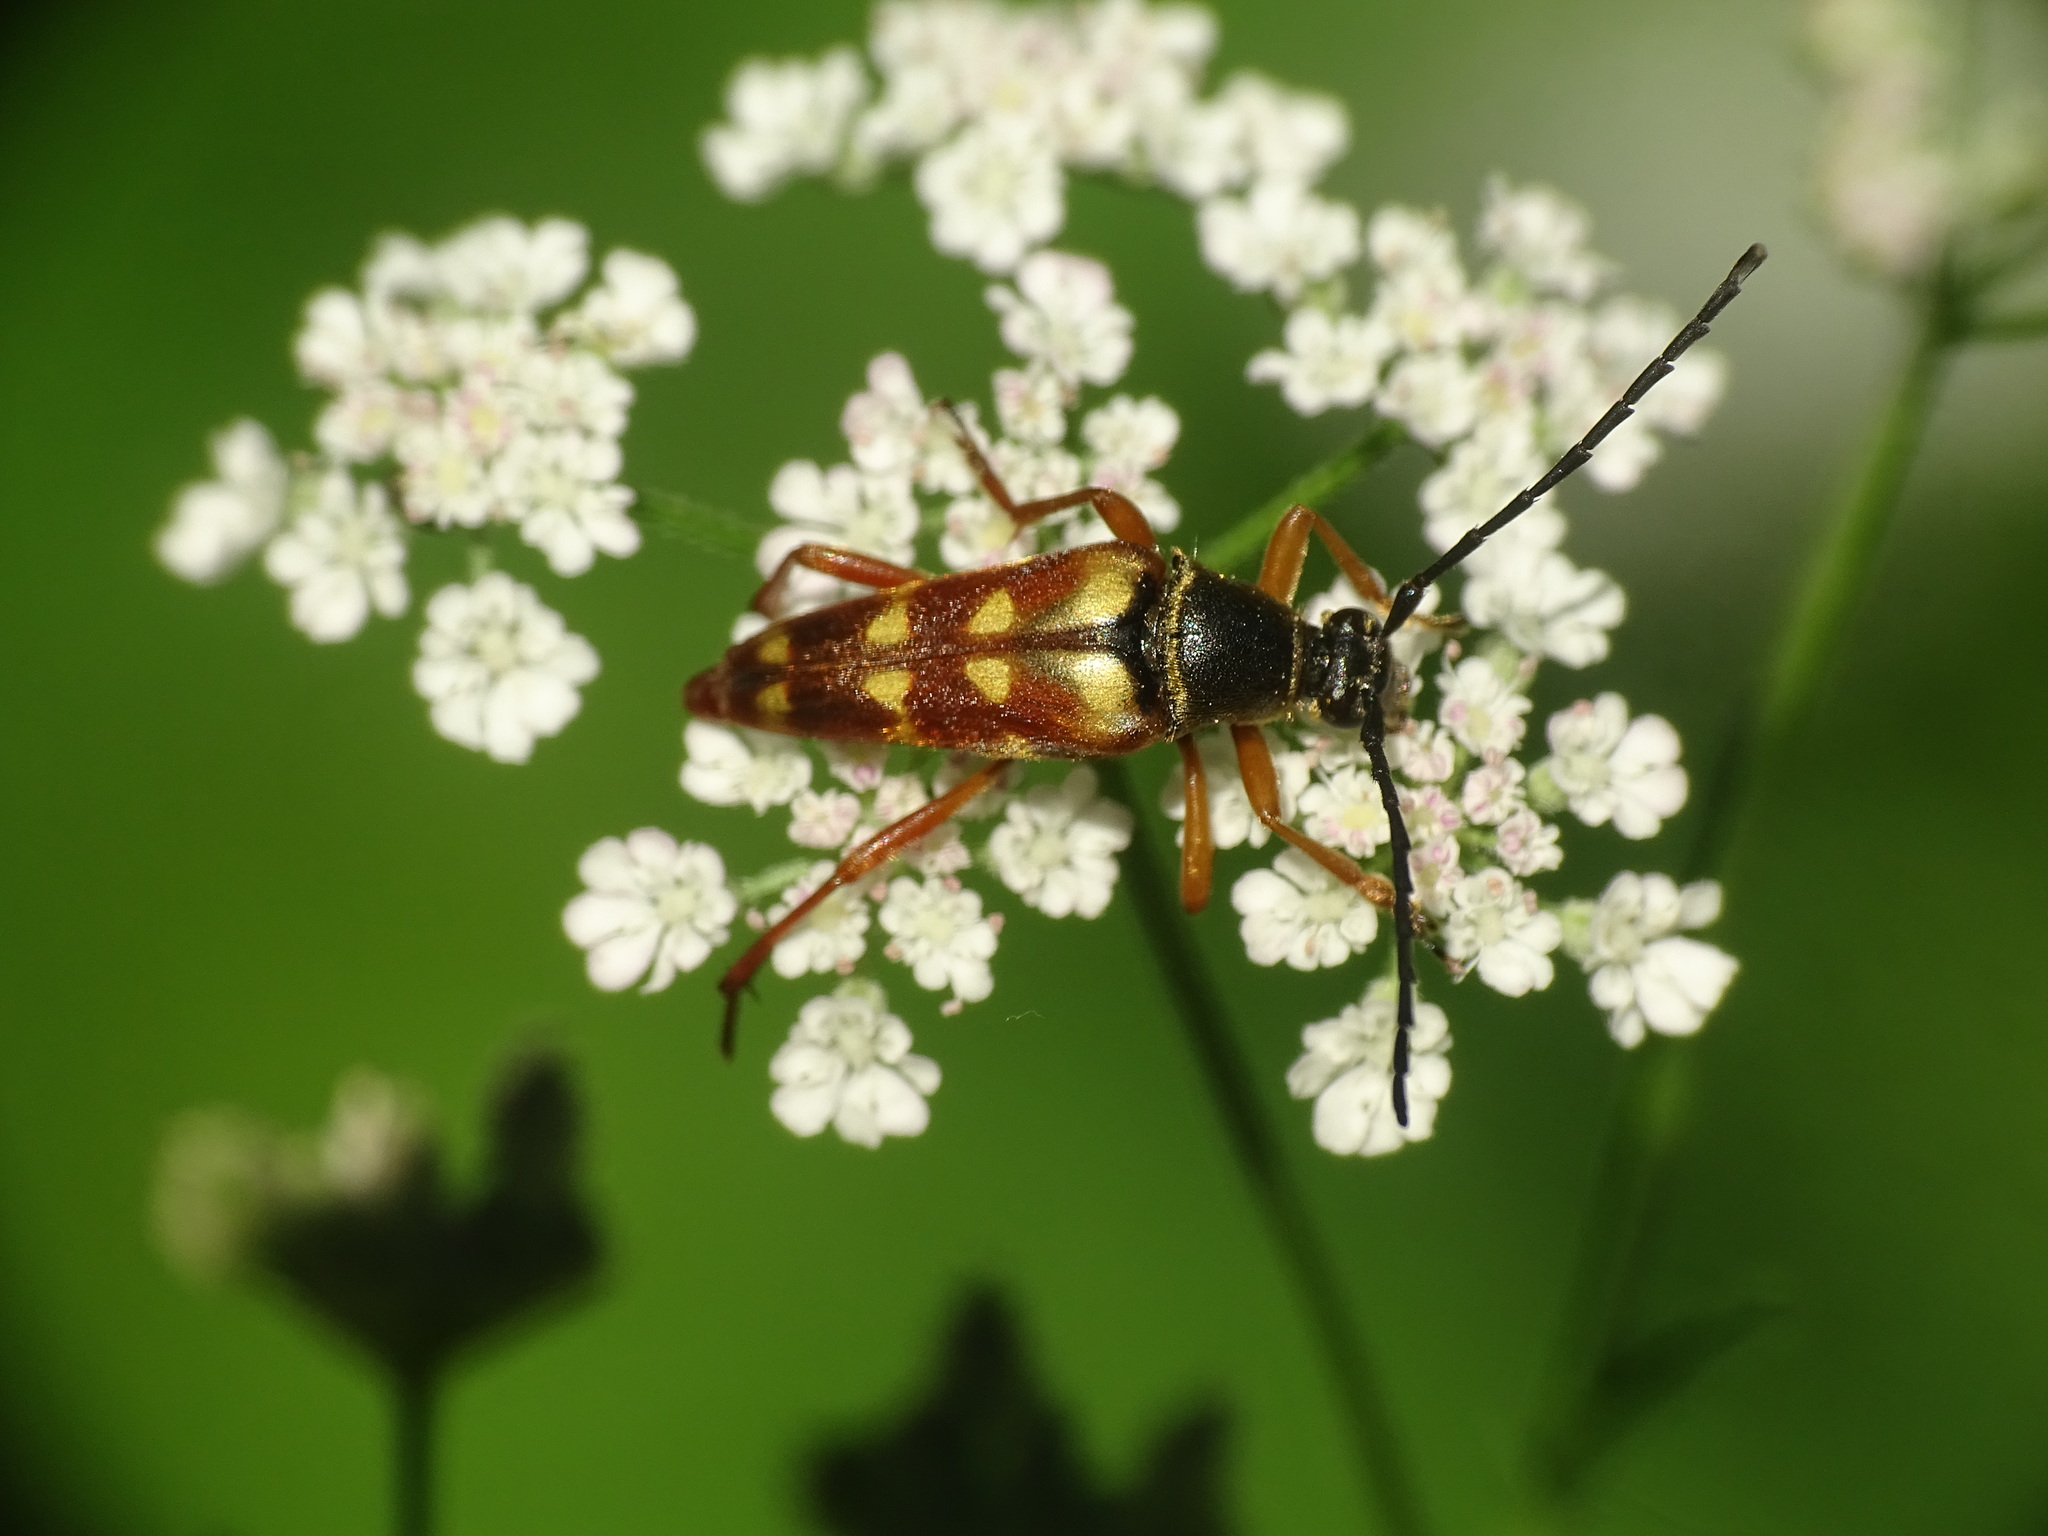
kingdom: Animalia
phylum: Arthropoda
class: Insecta
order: Coleoptera
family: Cerambycidae
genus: Typocerus
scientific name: Typocerus velutinus
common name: Banded longhorn beetle
